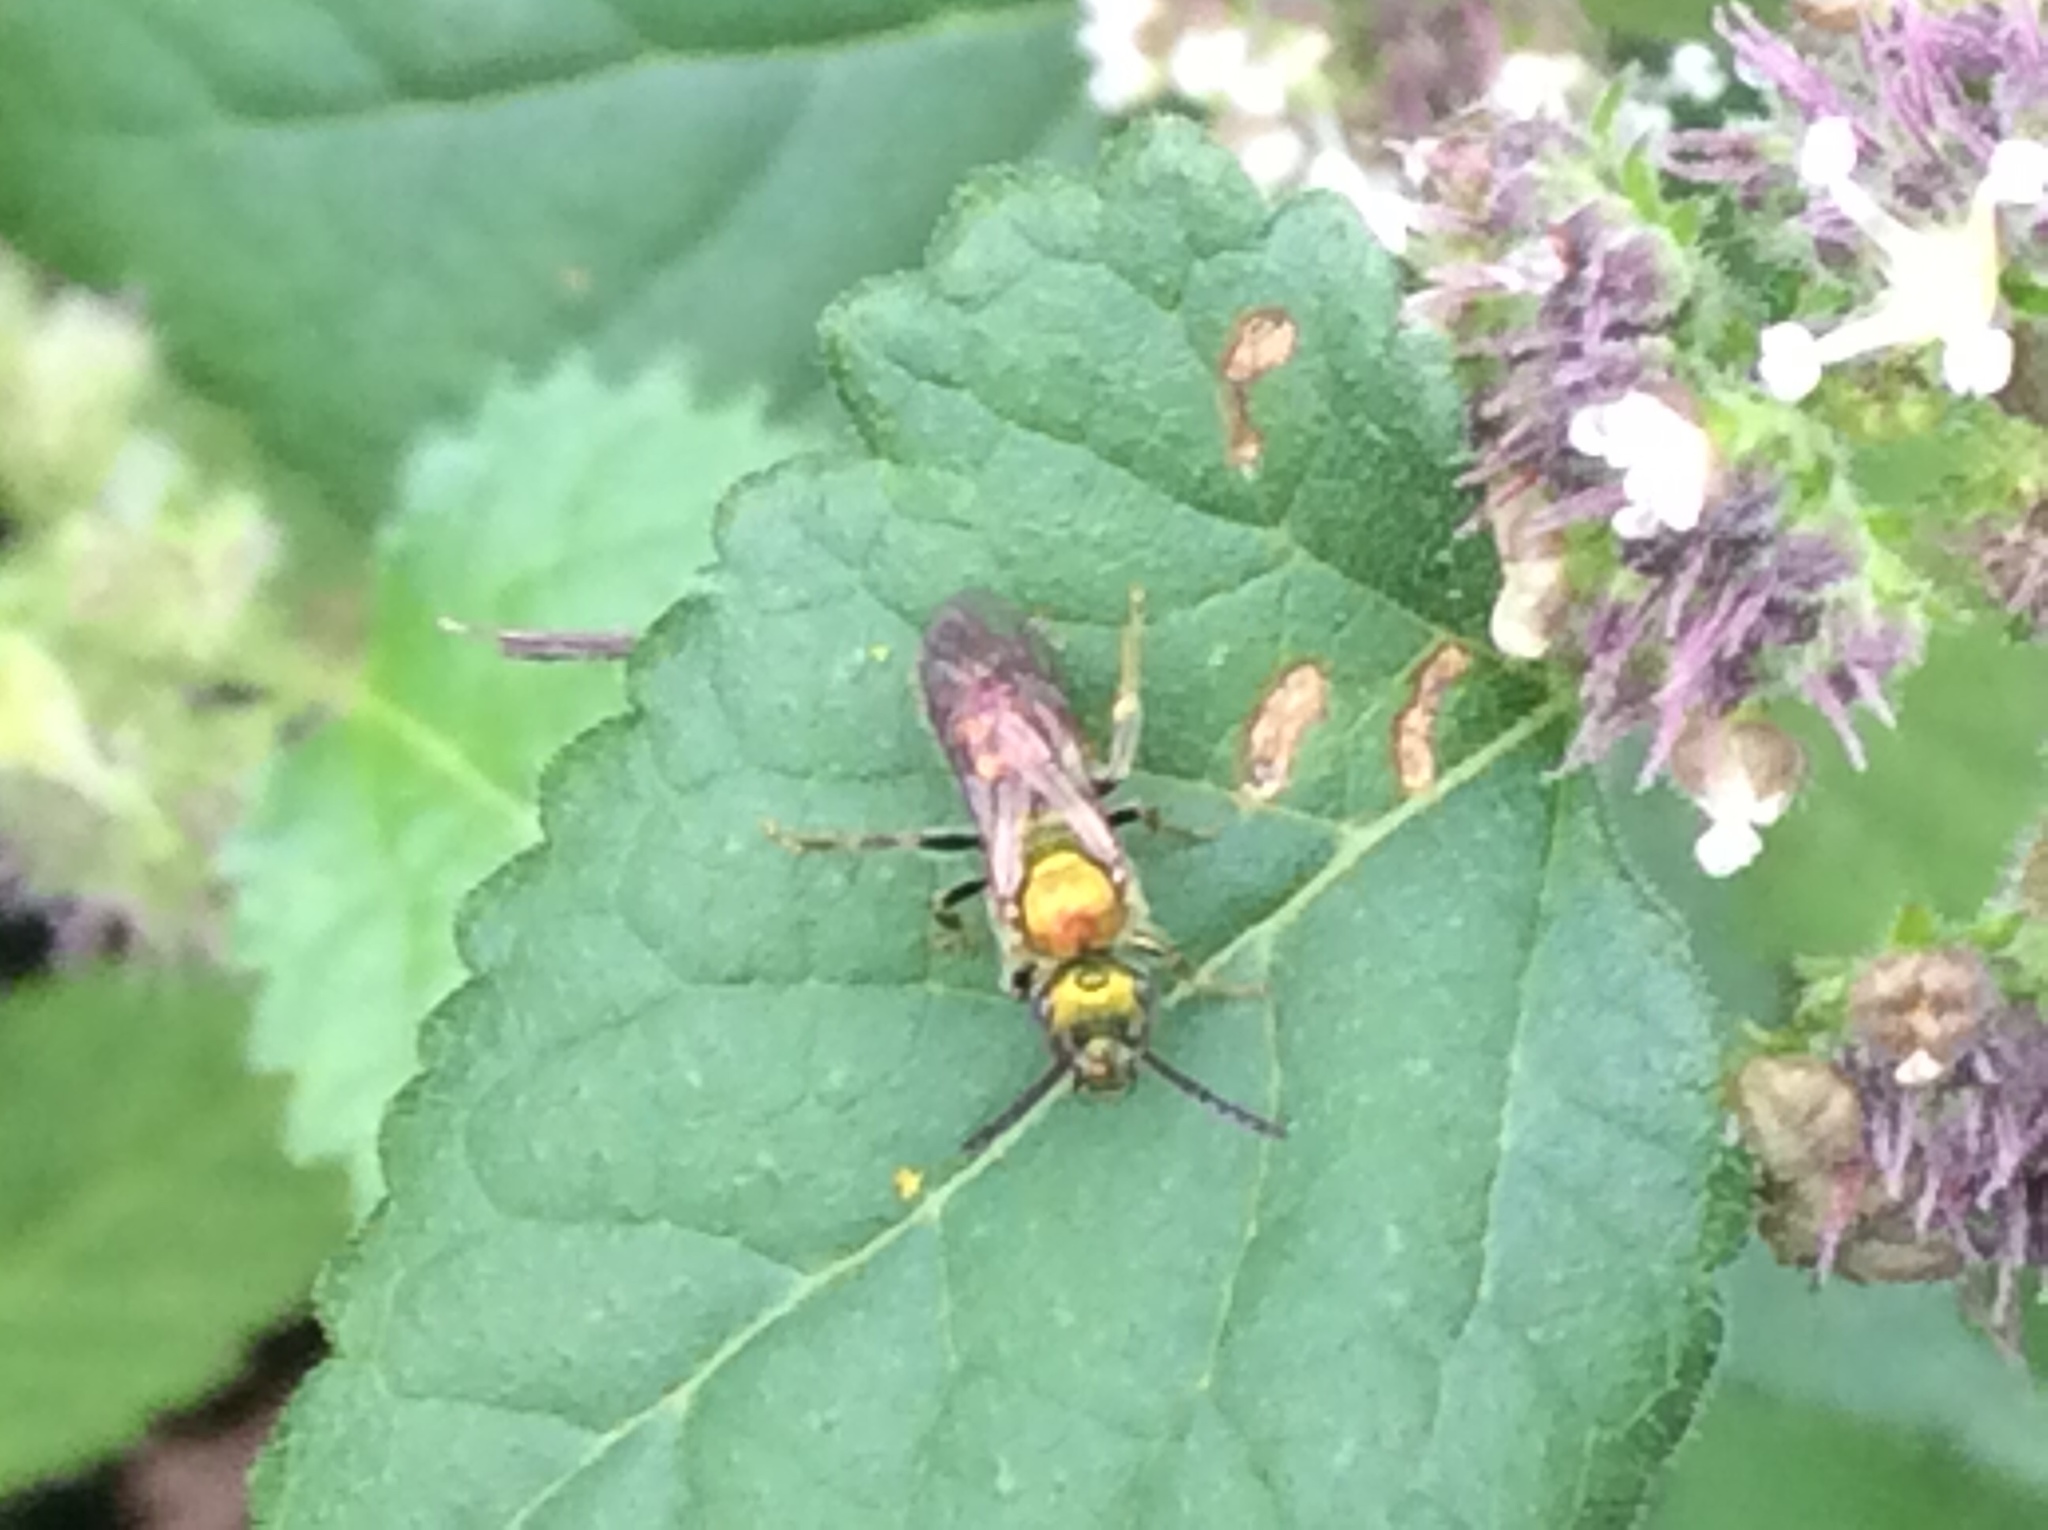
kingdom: Animalia
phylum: Arthropoda
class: Insecta
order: Hymenoptera
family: Halictidae
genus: Augochlora
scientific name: Augochlora pura
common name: Pure green sweat bee
